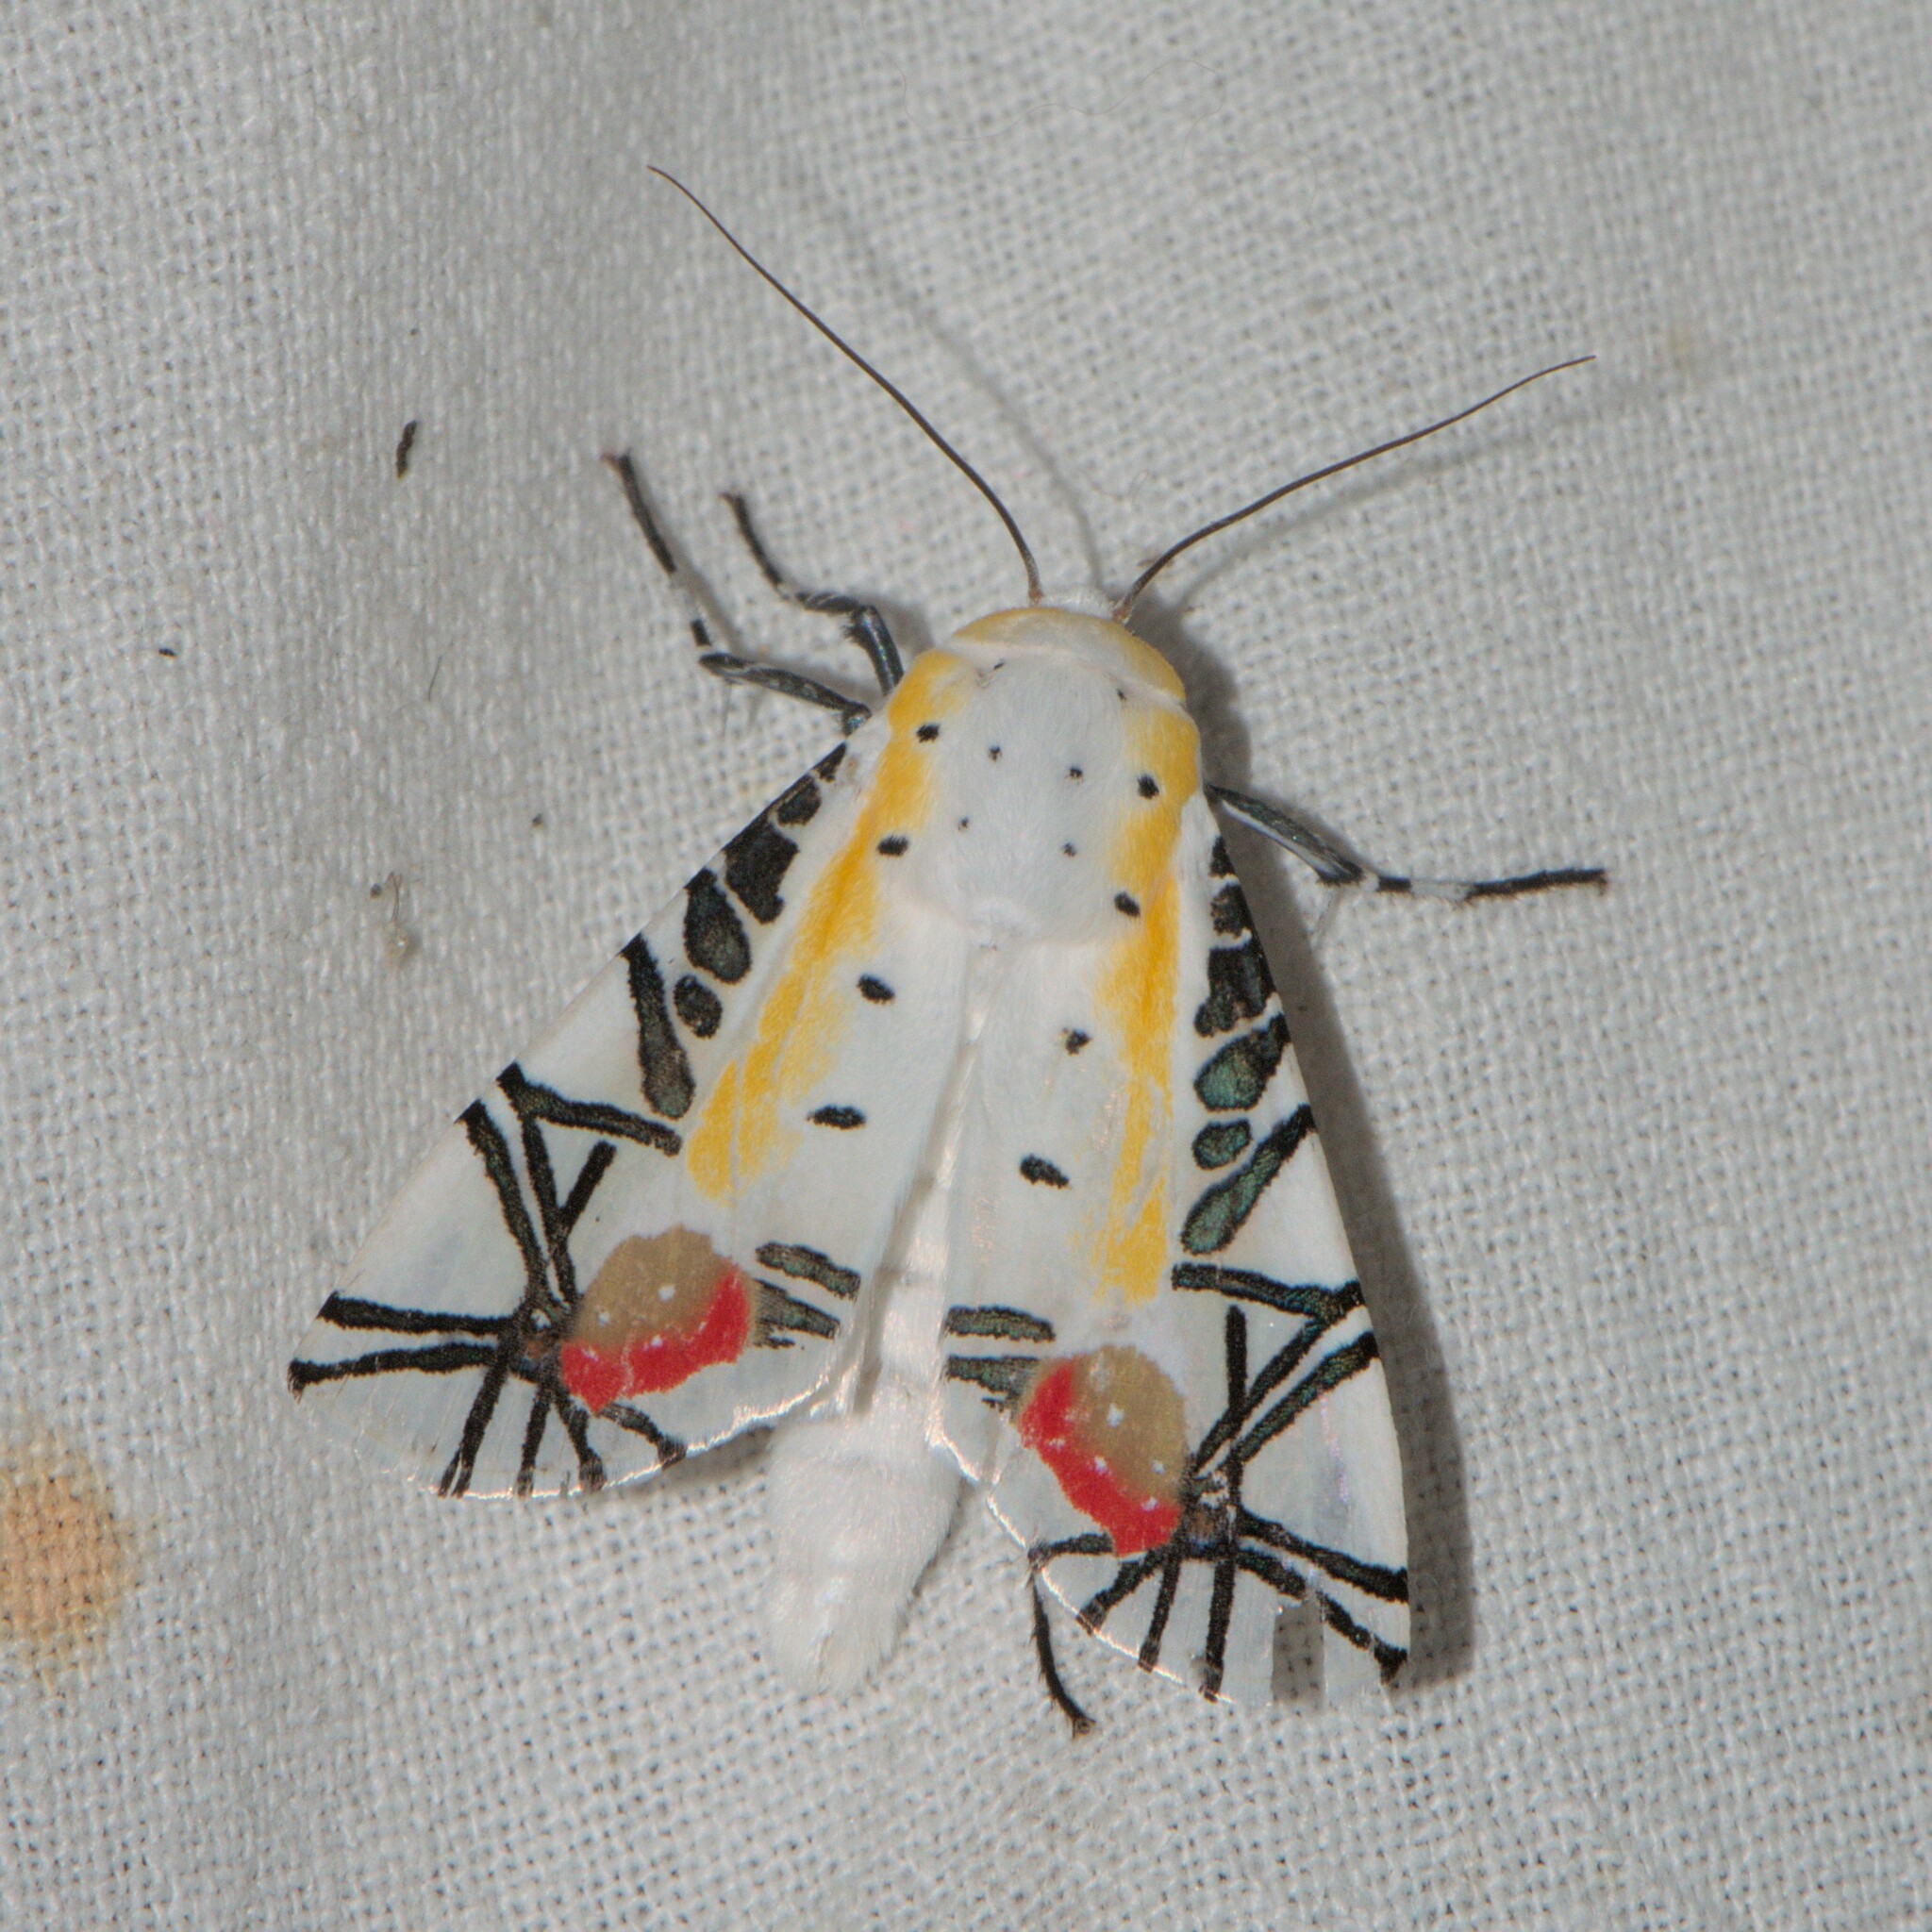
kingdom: Animalia
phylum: Arthropoda
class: Insecta
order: Lepidoptera
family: Erebidae
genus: Baorisa
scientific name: Baorisa hieroglyphica
